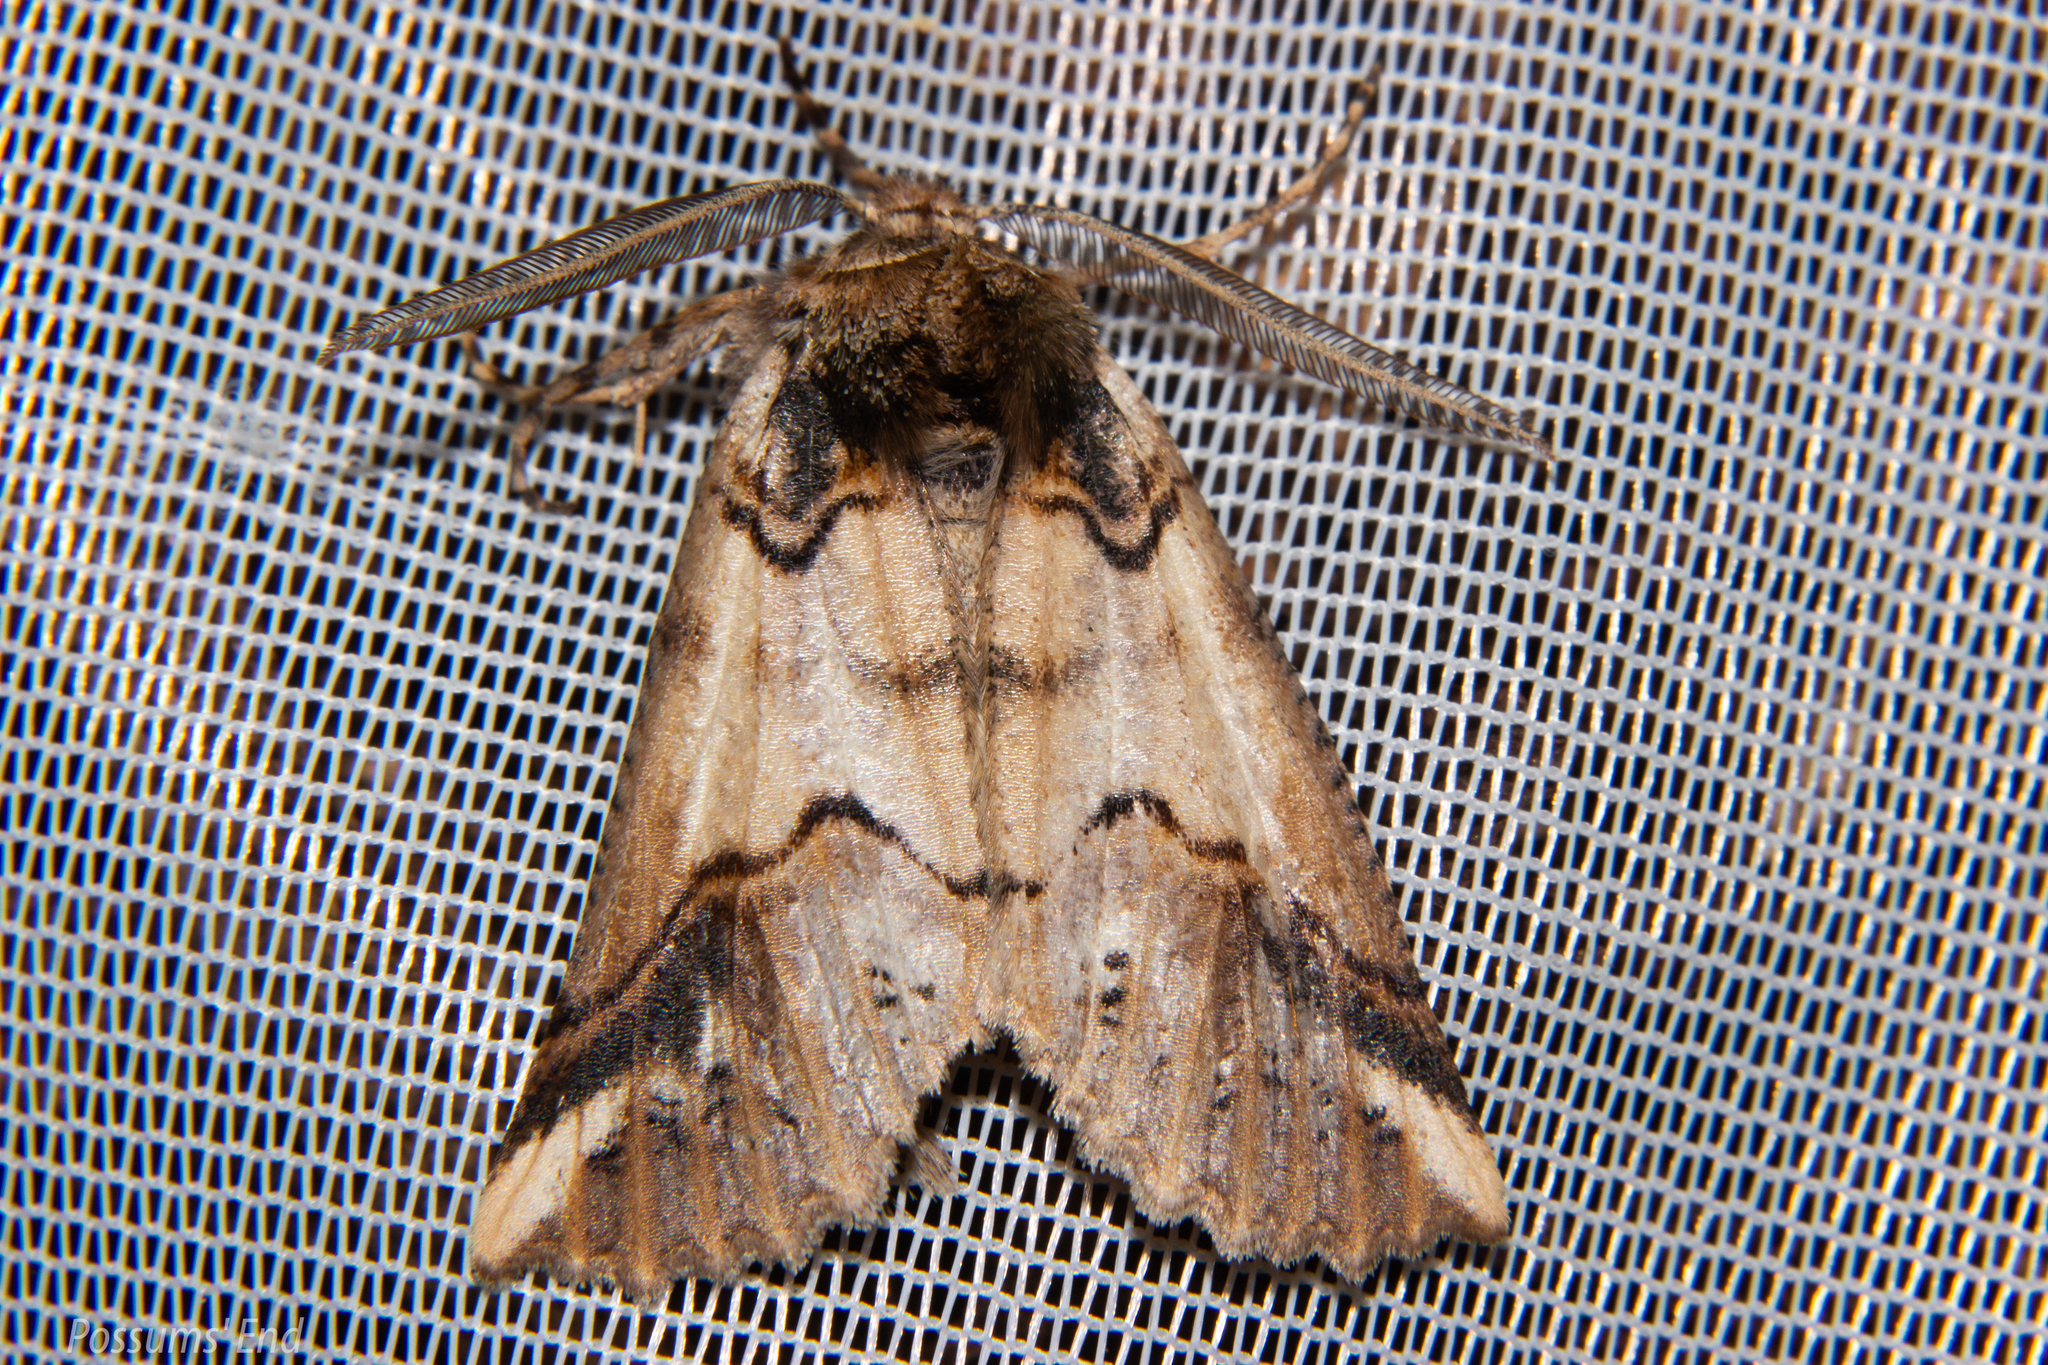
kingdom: Animalia
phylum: Arthropoda
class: Insecta
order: Lepidoptera
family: Geometridae
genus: Declana
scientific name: Declana
